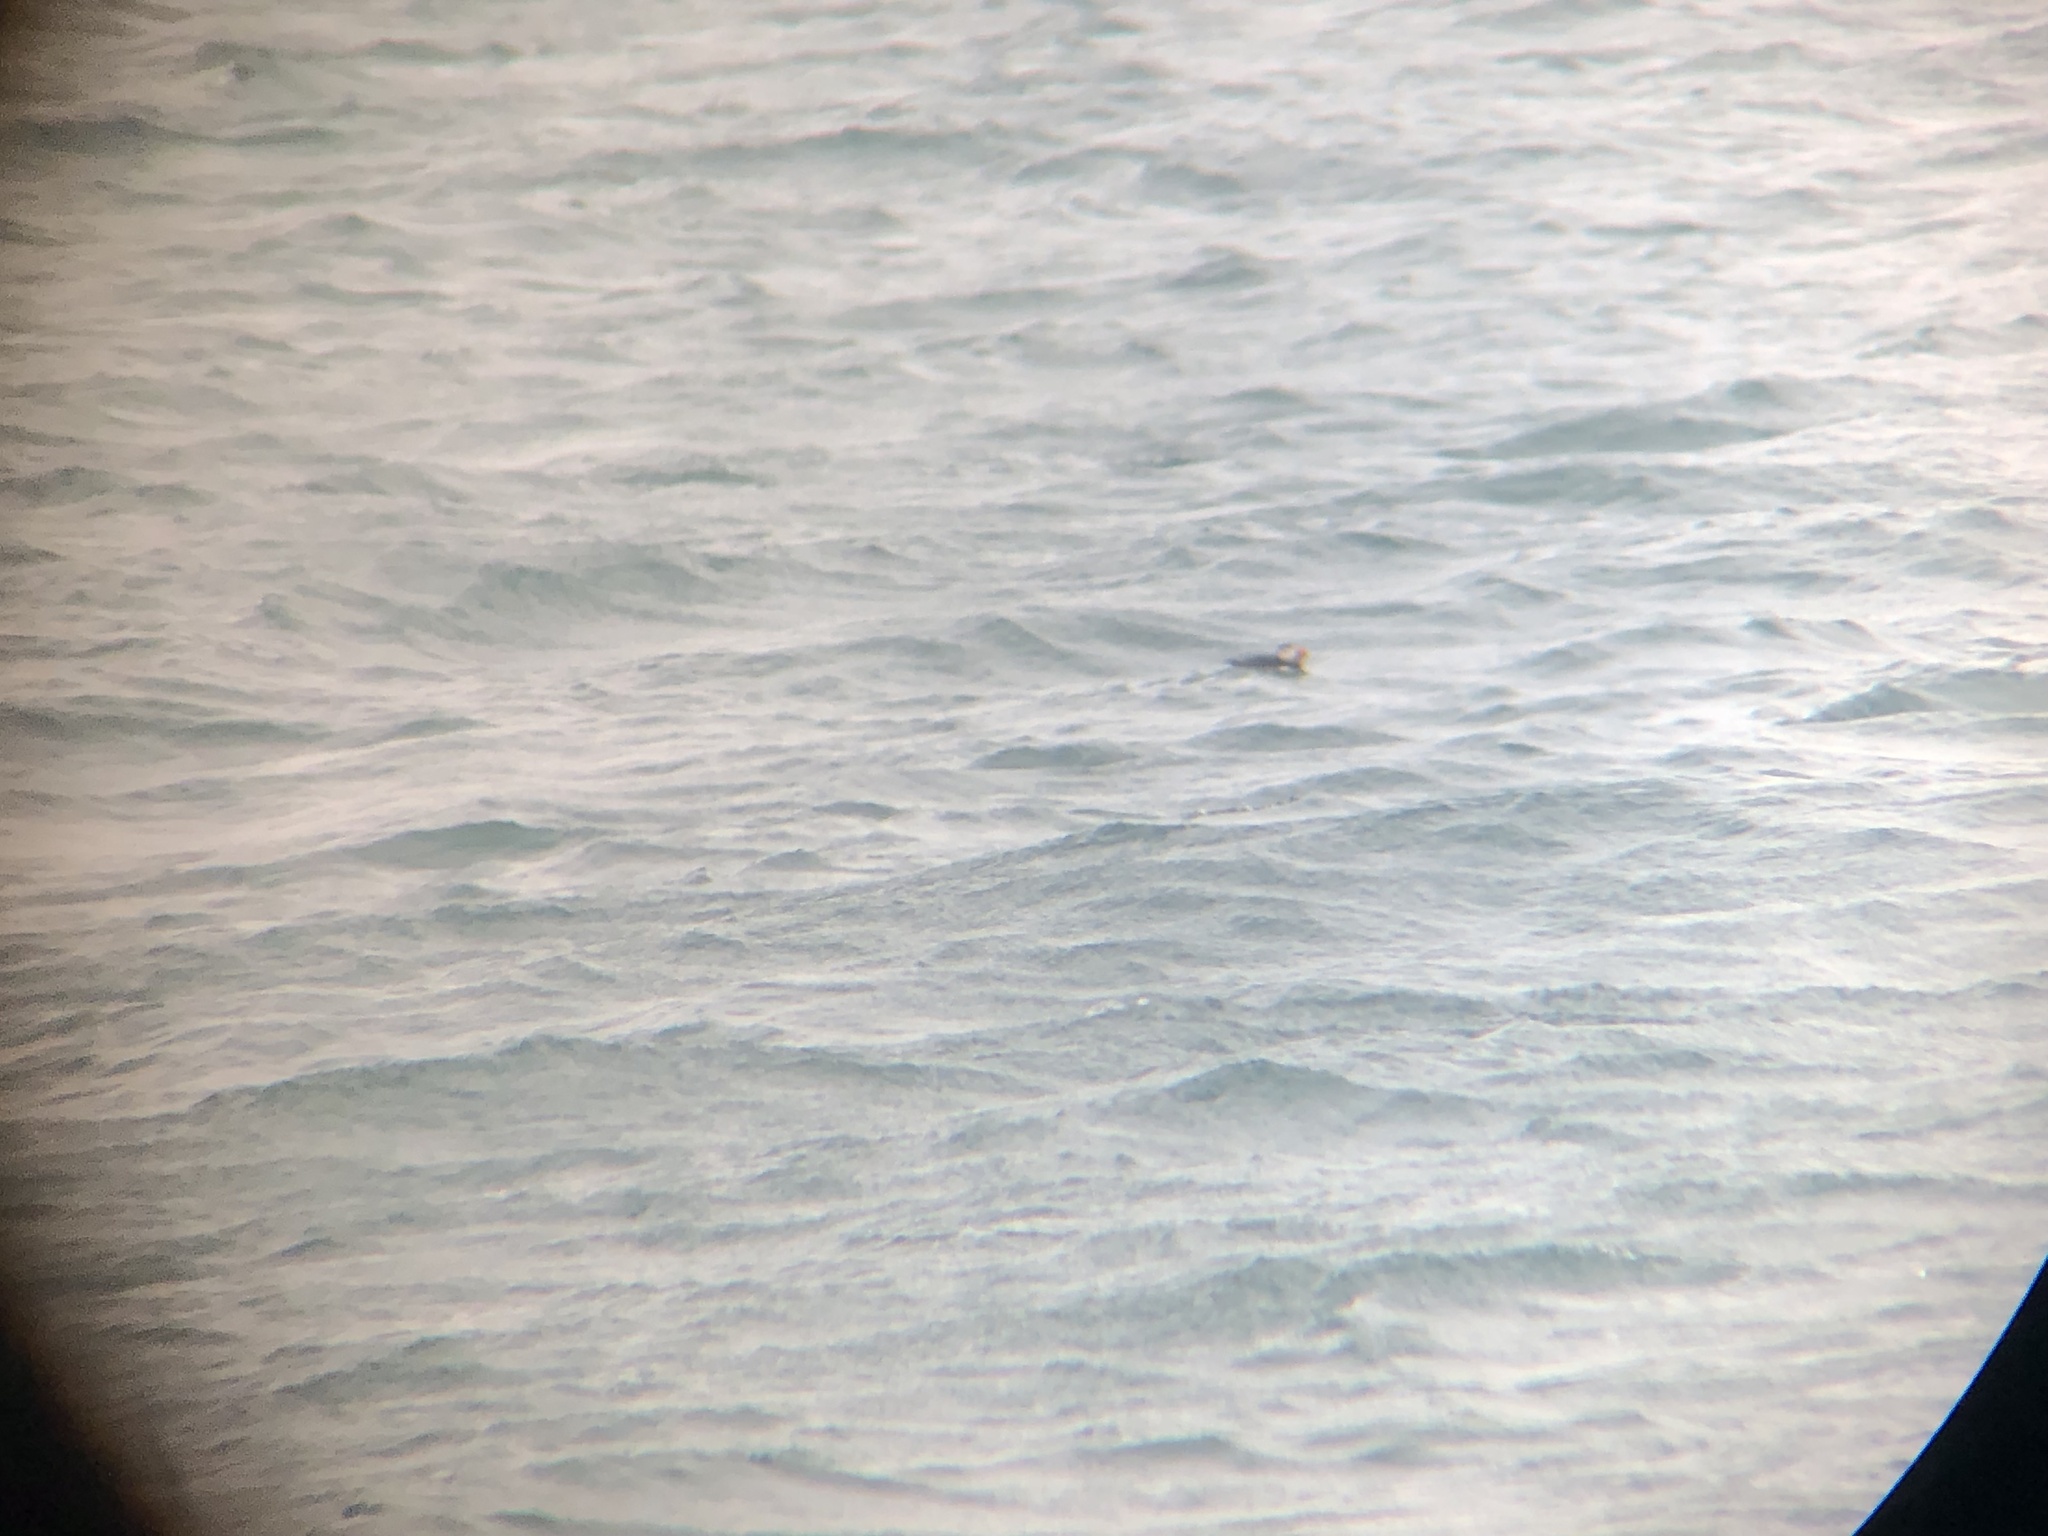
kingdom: Animalia
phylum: Chordata
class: Aves
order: Charadriiformes
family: Alcidae
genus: Fratercula
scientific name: Fratercula arctica
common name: Atlantic puffin
